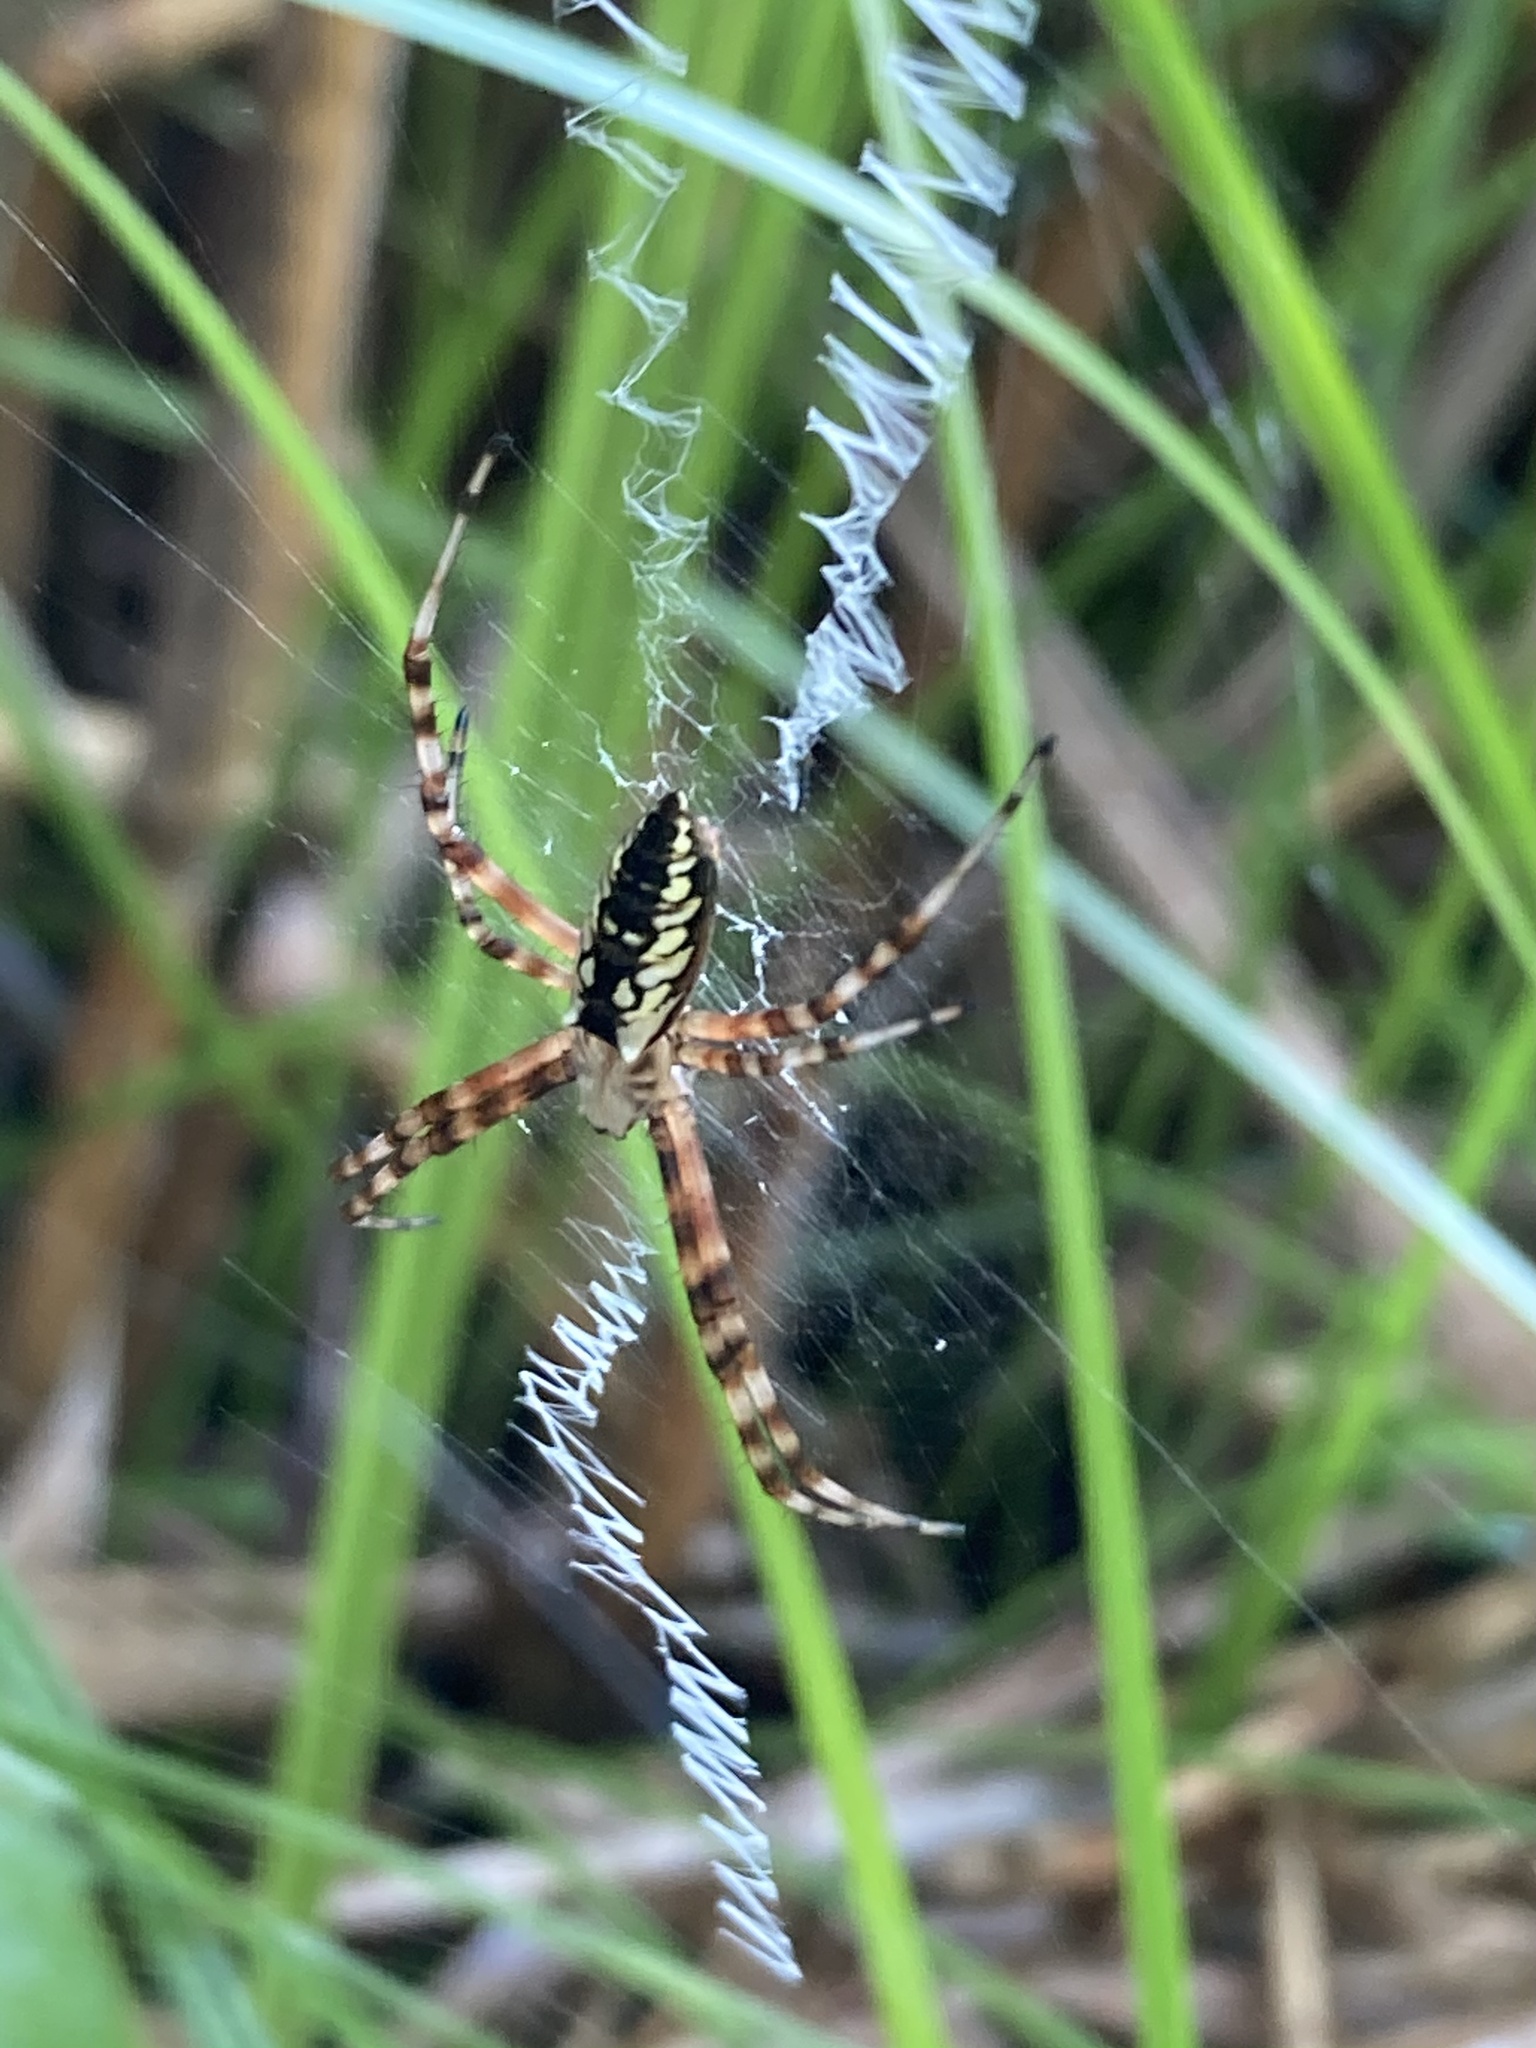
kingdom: Animalia
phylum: Arthropoda
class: Arachnida
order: Araneae
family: Araneidae
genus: Argiope
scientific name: Argiope aurantia
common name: Orb weavers
